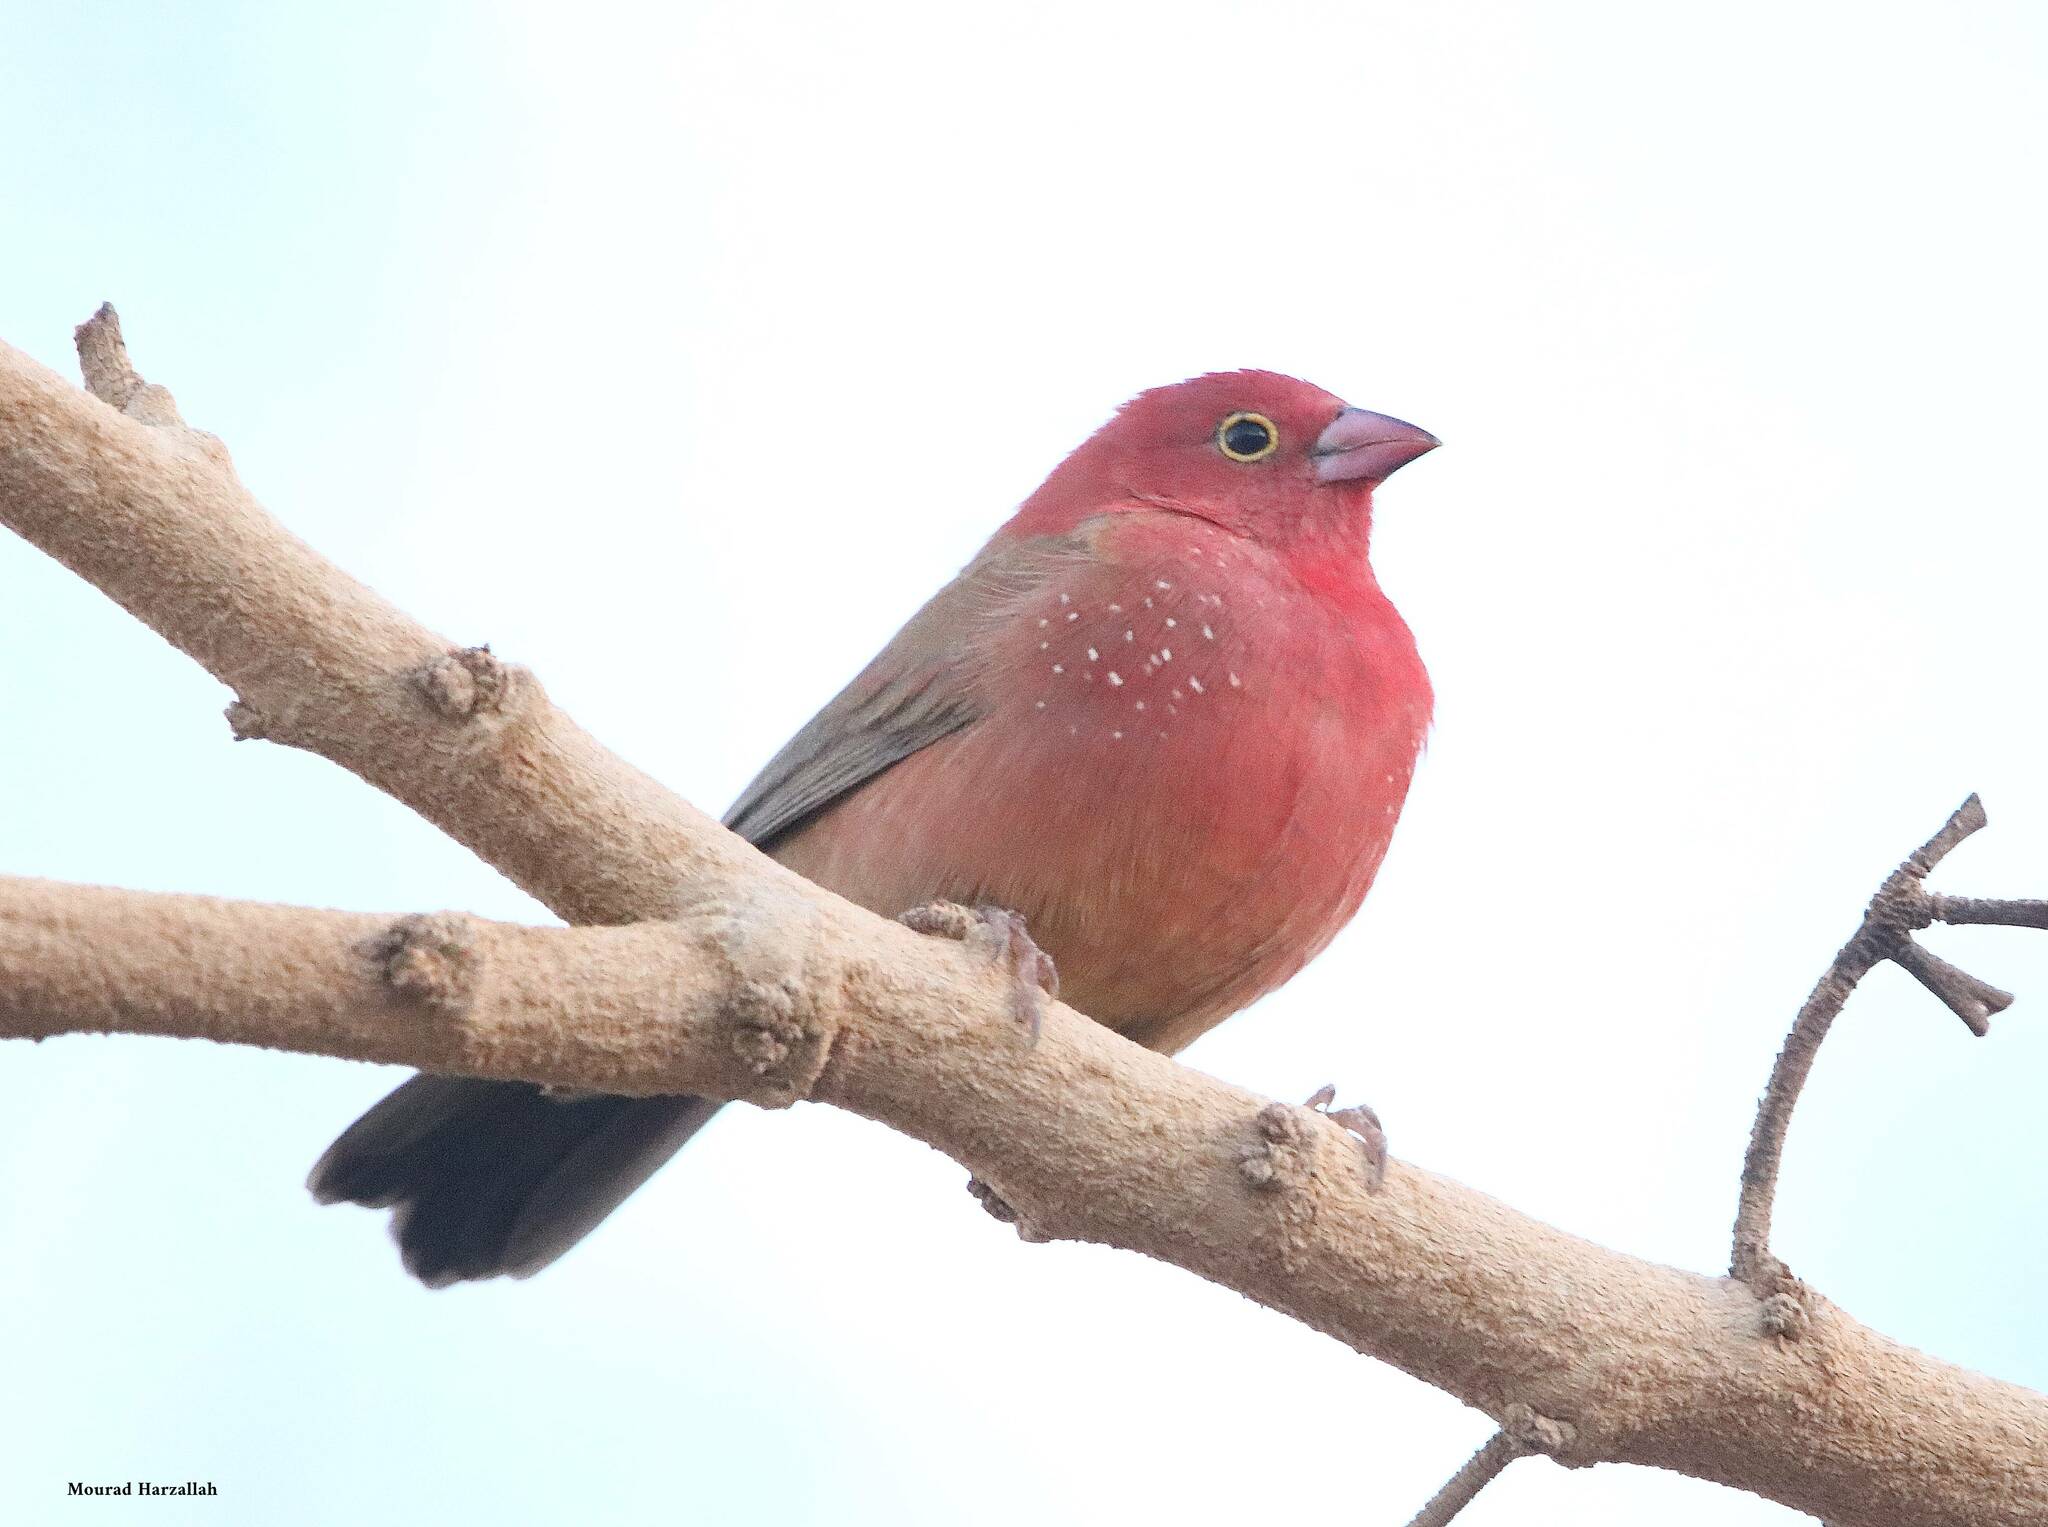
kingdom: Animalia
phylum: Chordata
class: Aves
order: Passeriformes
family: Estrildidae
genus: Lagonosticta
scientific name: Lagonosticta senegala
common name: Red-billed firefinch
